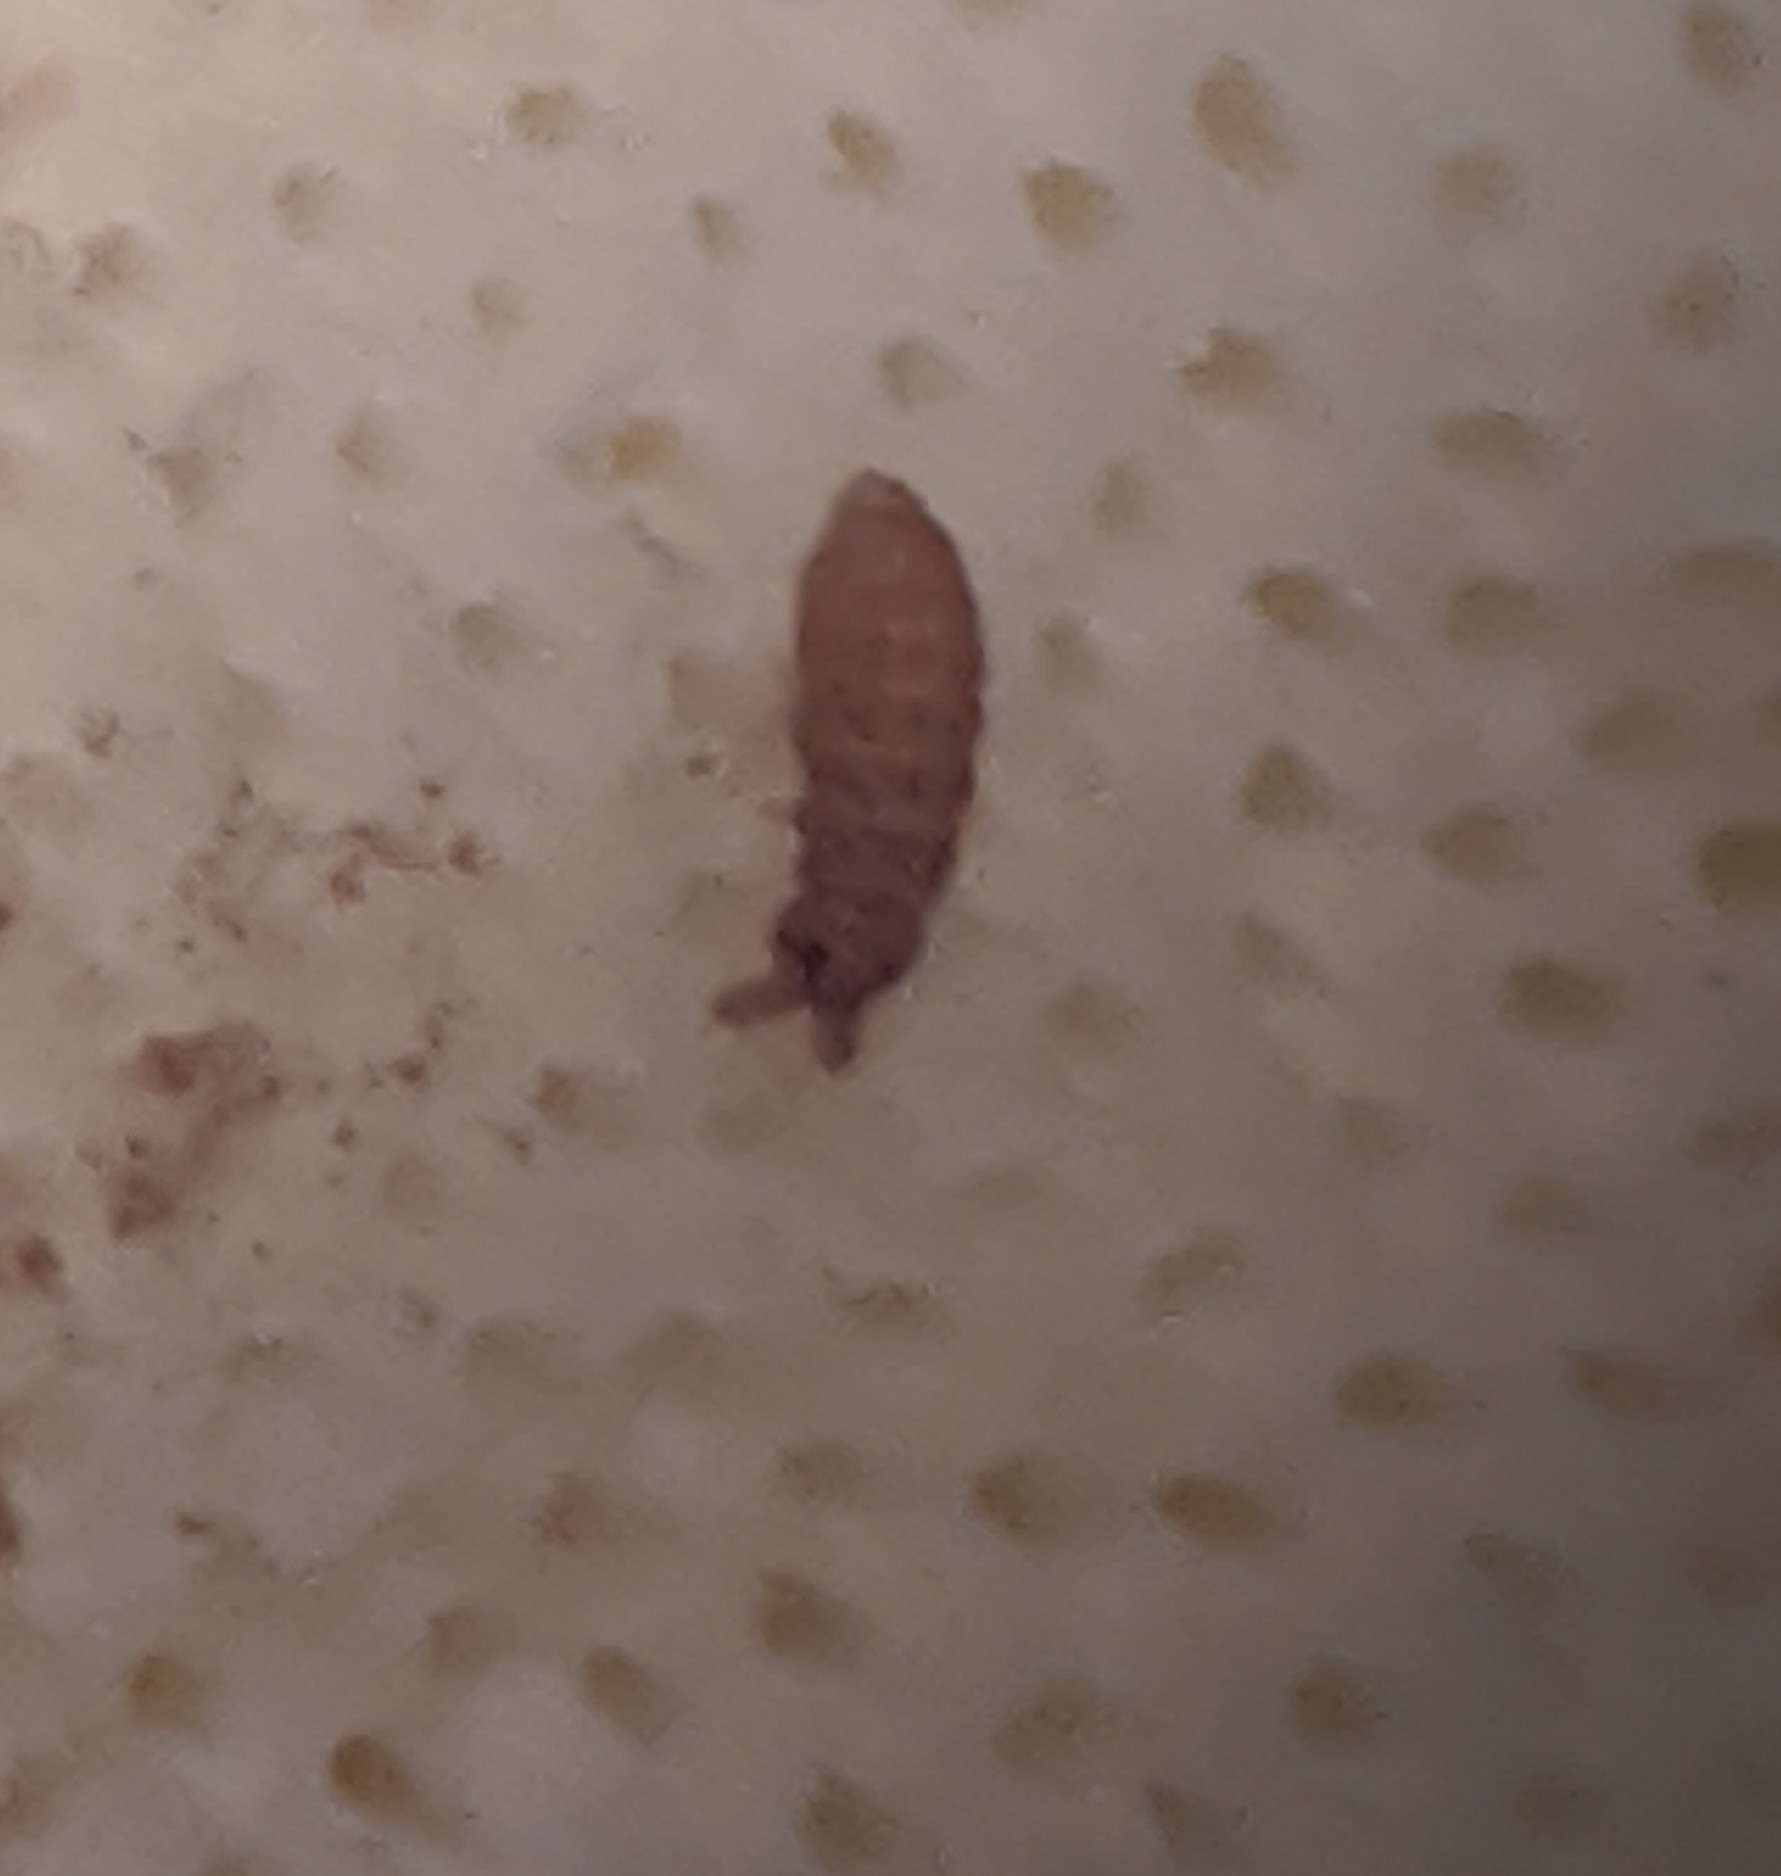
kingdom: Fungi
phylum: Basidiomycota
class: Agaricomycetes
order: Polyporales
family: Irpicaceae
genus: Gloeoporus
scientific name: Gloeoporus pannocinctus
